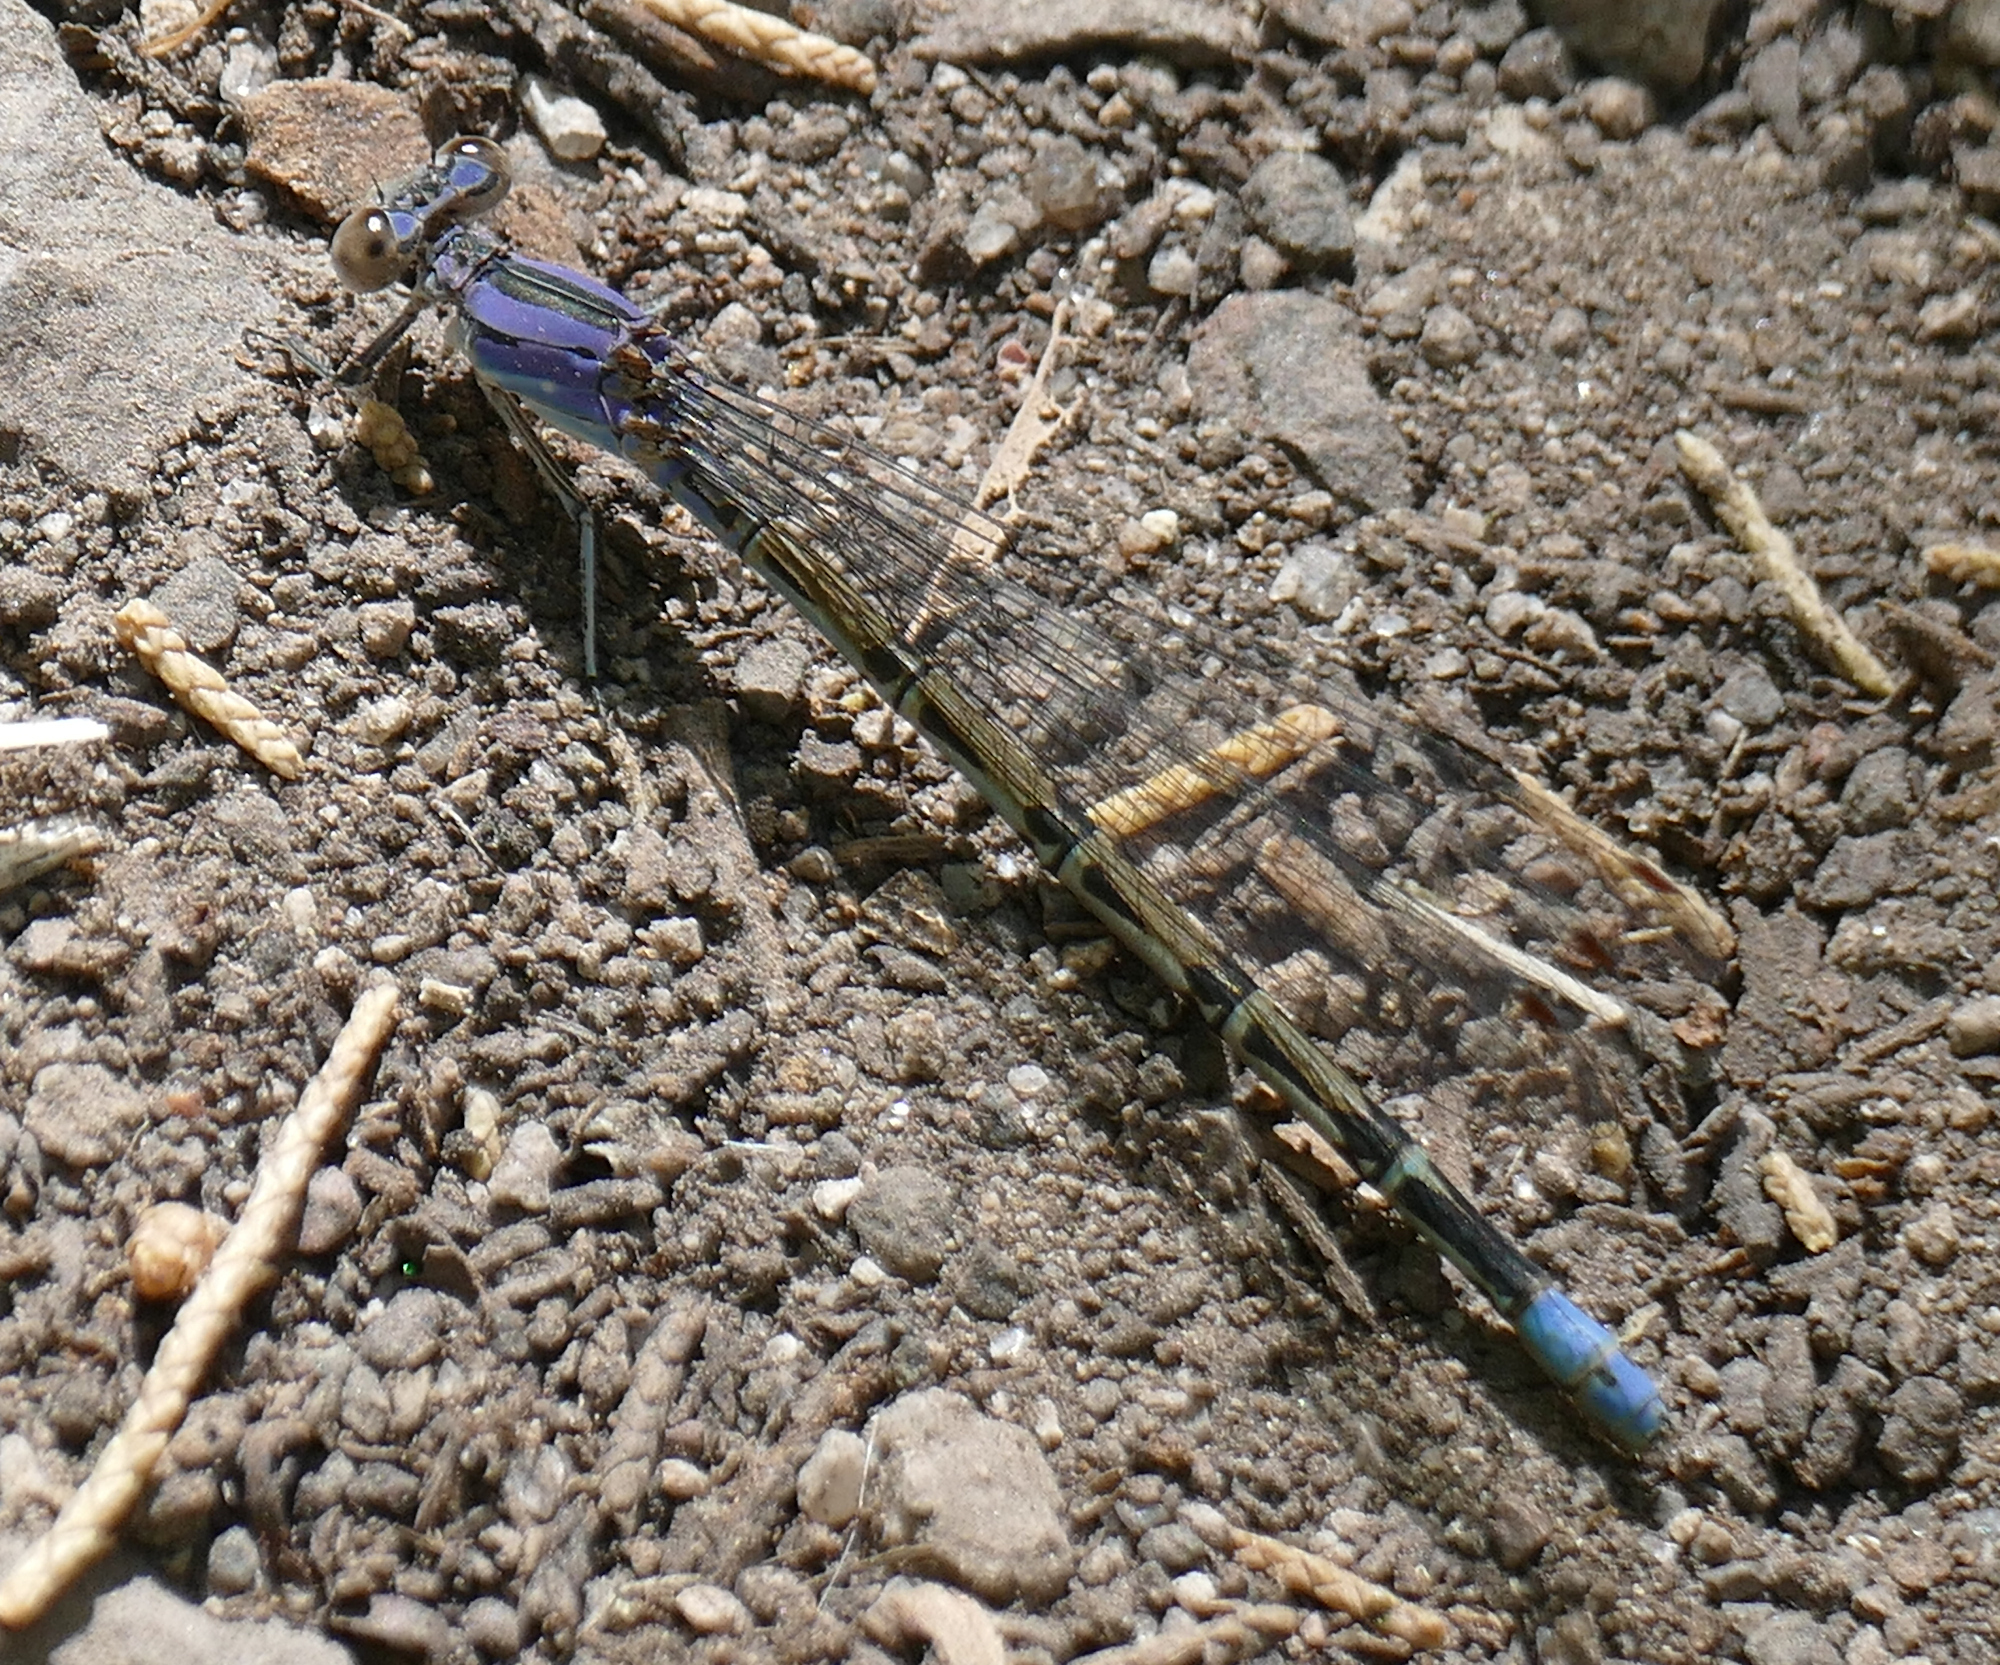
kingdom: Animalia
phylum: Arthropoda
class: Insecta
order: Odonata
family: Coenagrionidae
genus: Argia
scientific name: Argia funebris
